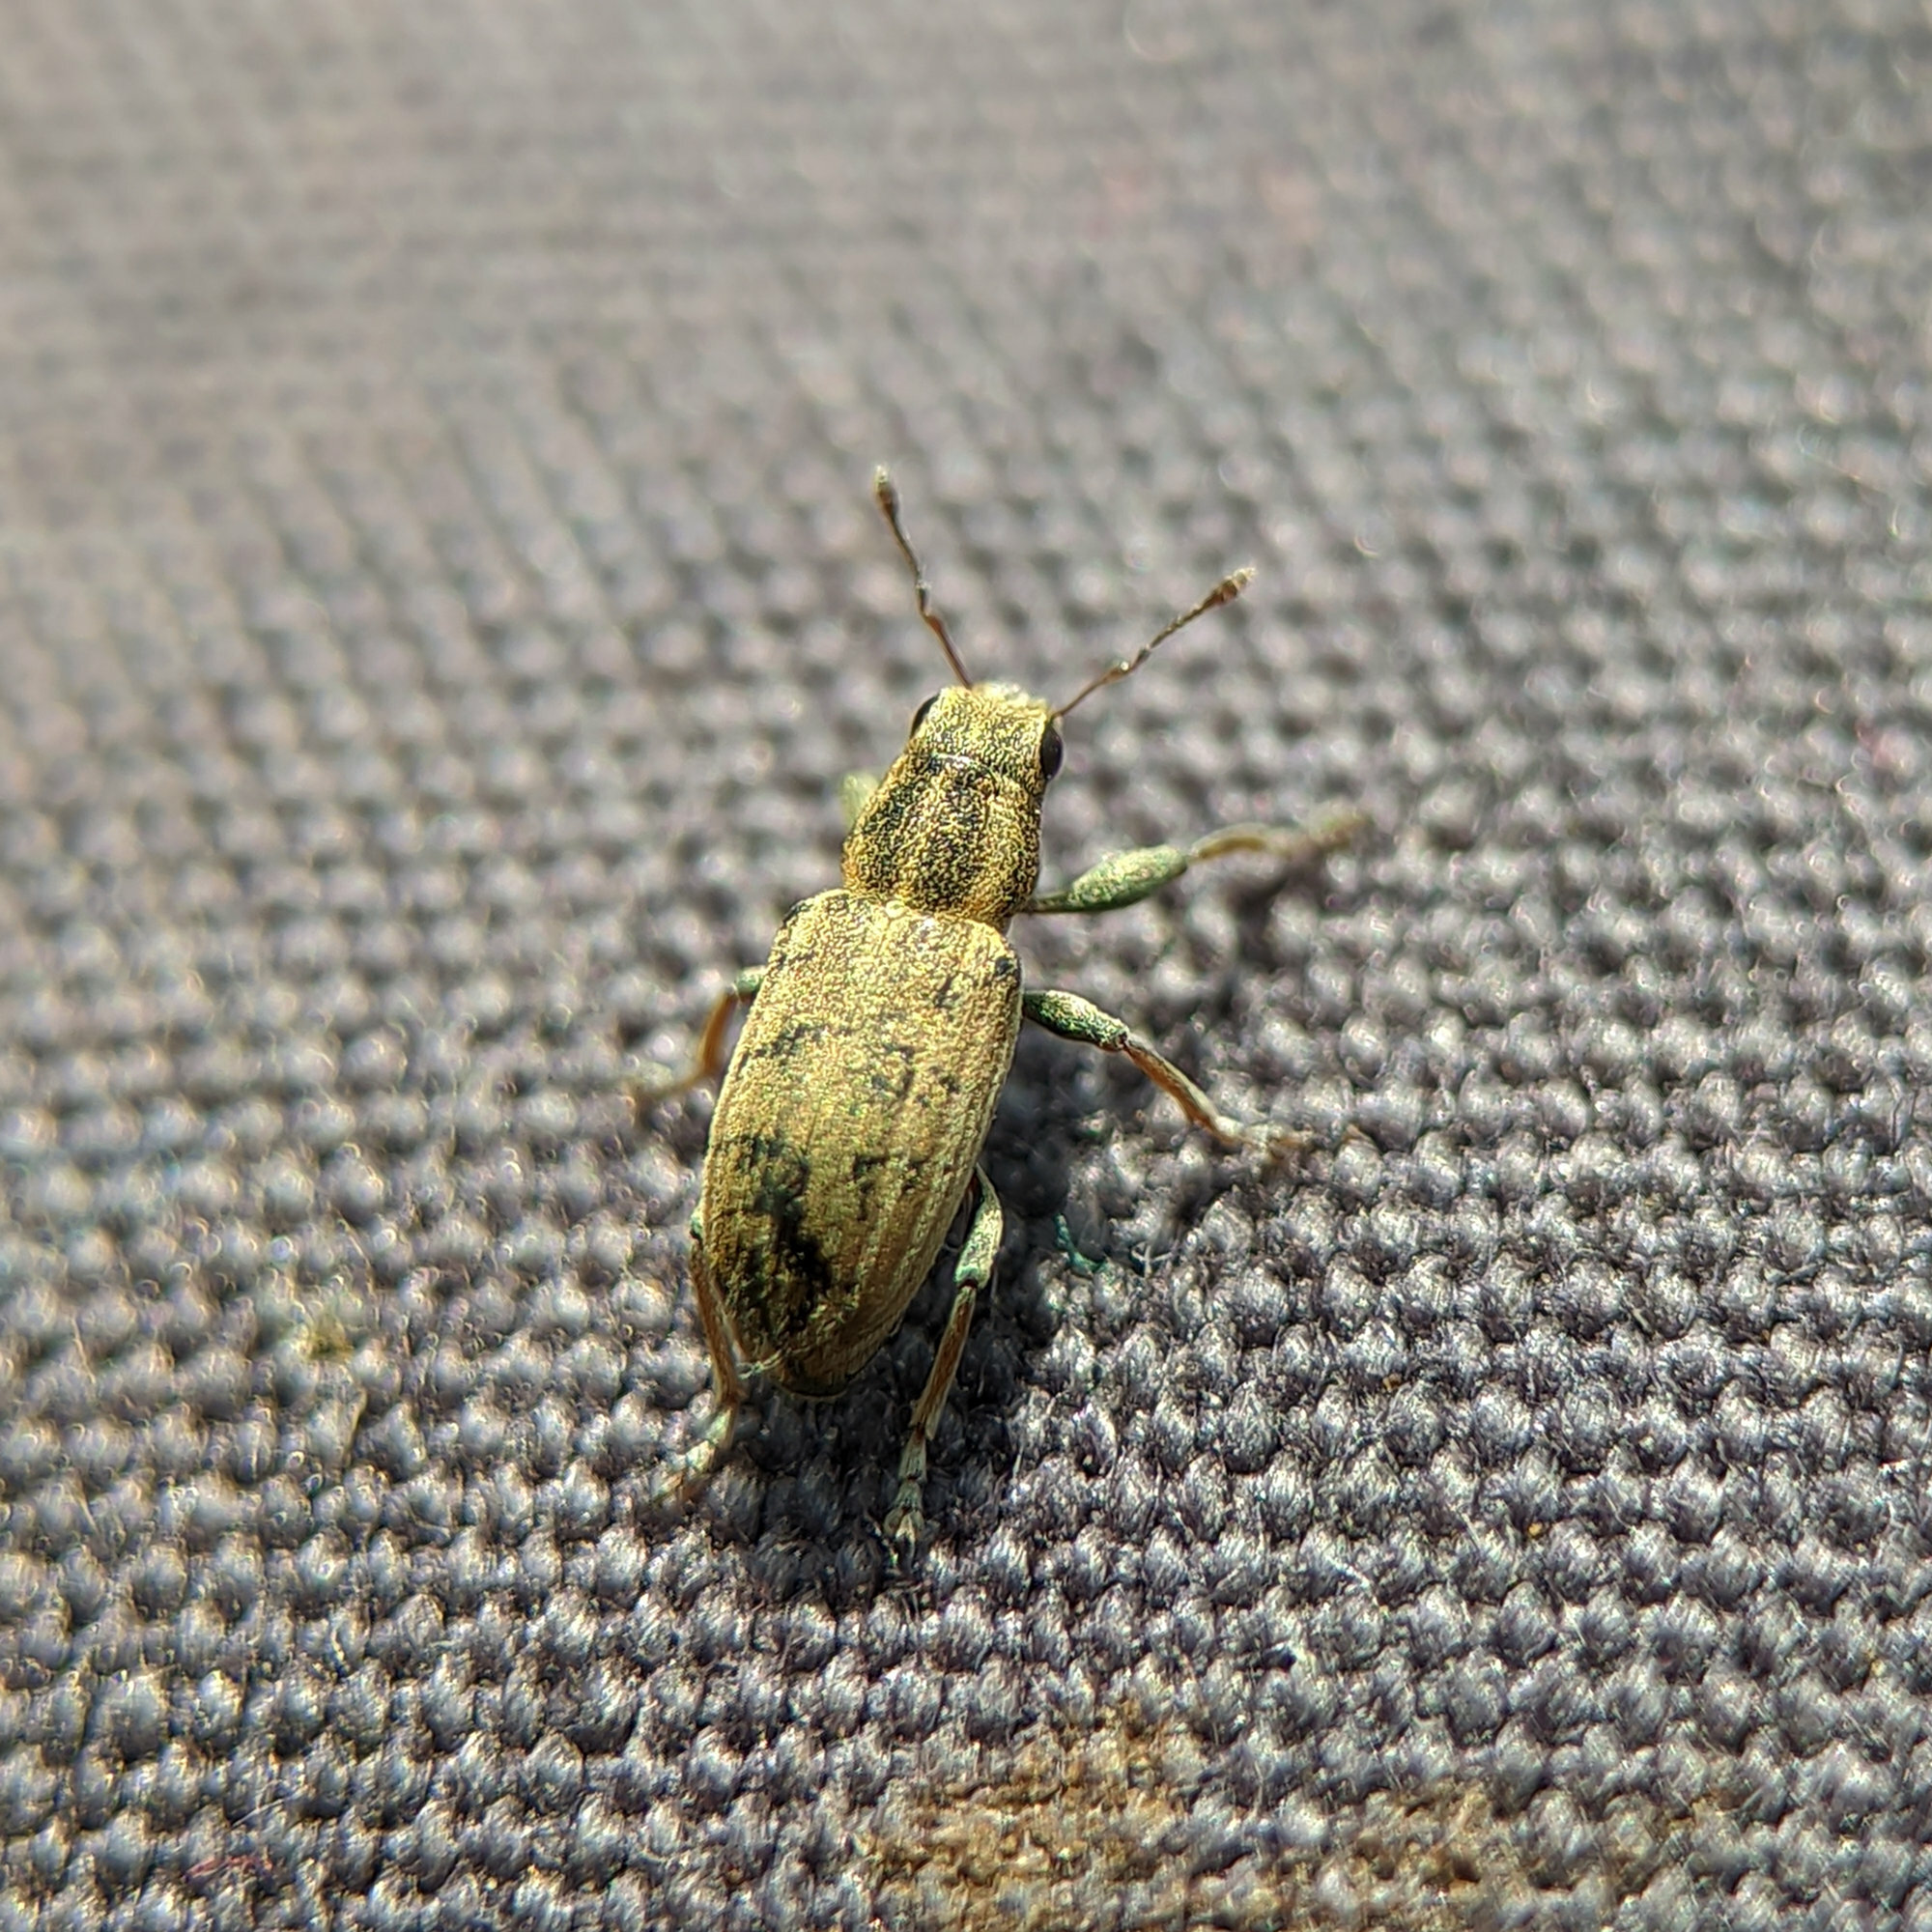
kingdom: Animalia
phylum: Arthropoda
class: Insecta
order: Coleoptera
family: Curculionidae
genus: Sitona
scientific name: Sitona lineatus
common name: Weevil
